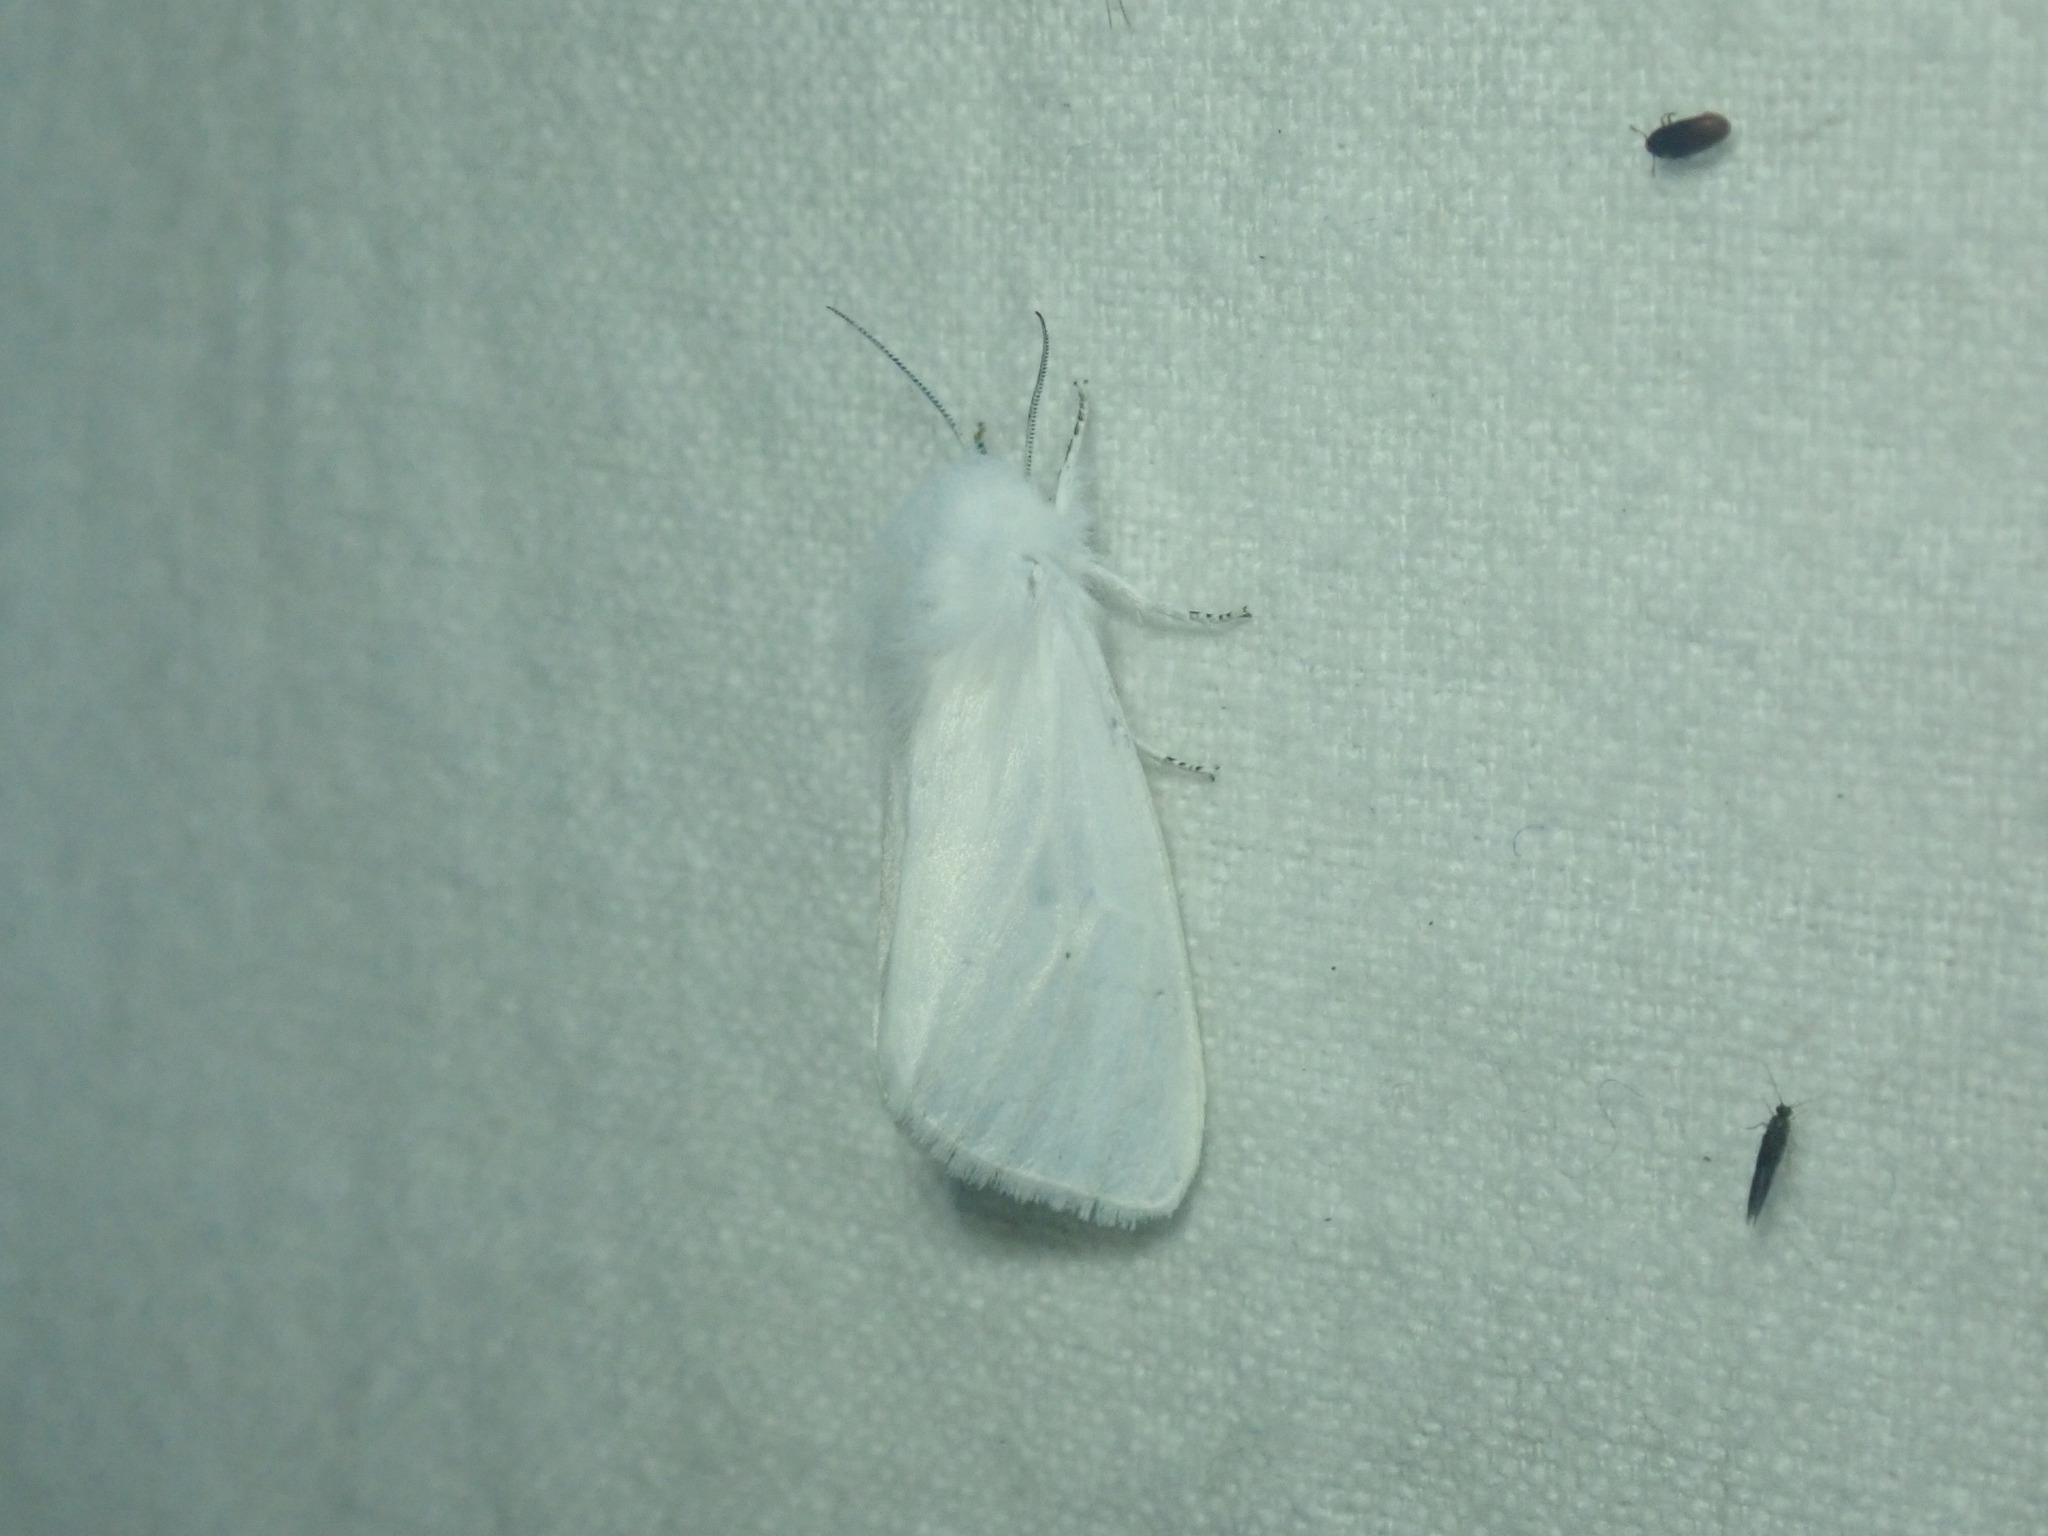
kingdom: Animalia
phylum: Arthropoda
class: Insecta
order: Lepidoptera
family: Erebidae
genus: Spilosoma
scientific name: Spilosoma virginica
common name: Virginia tiger moth
